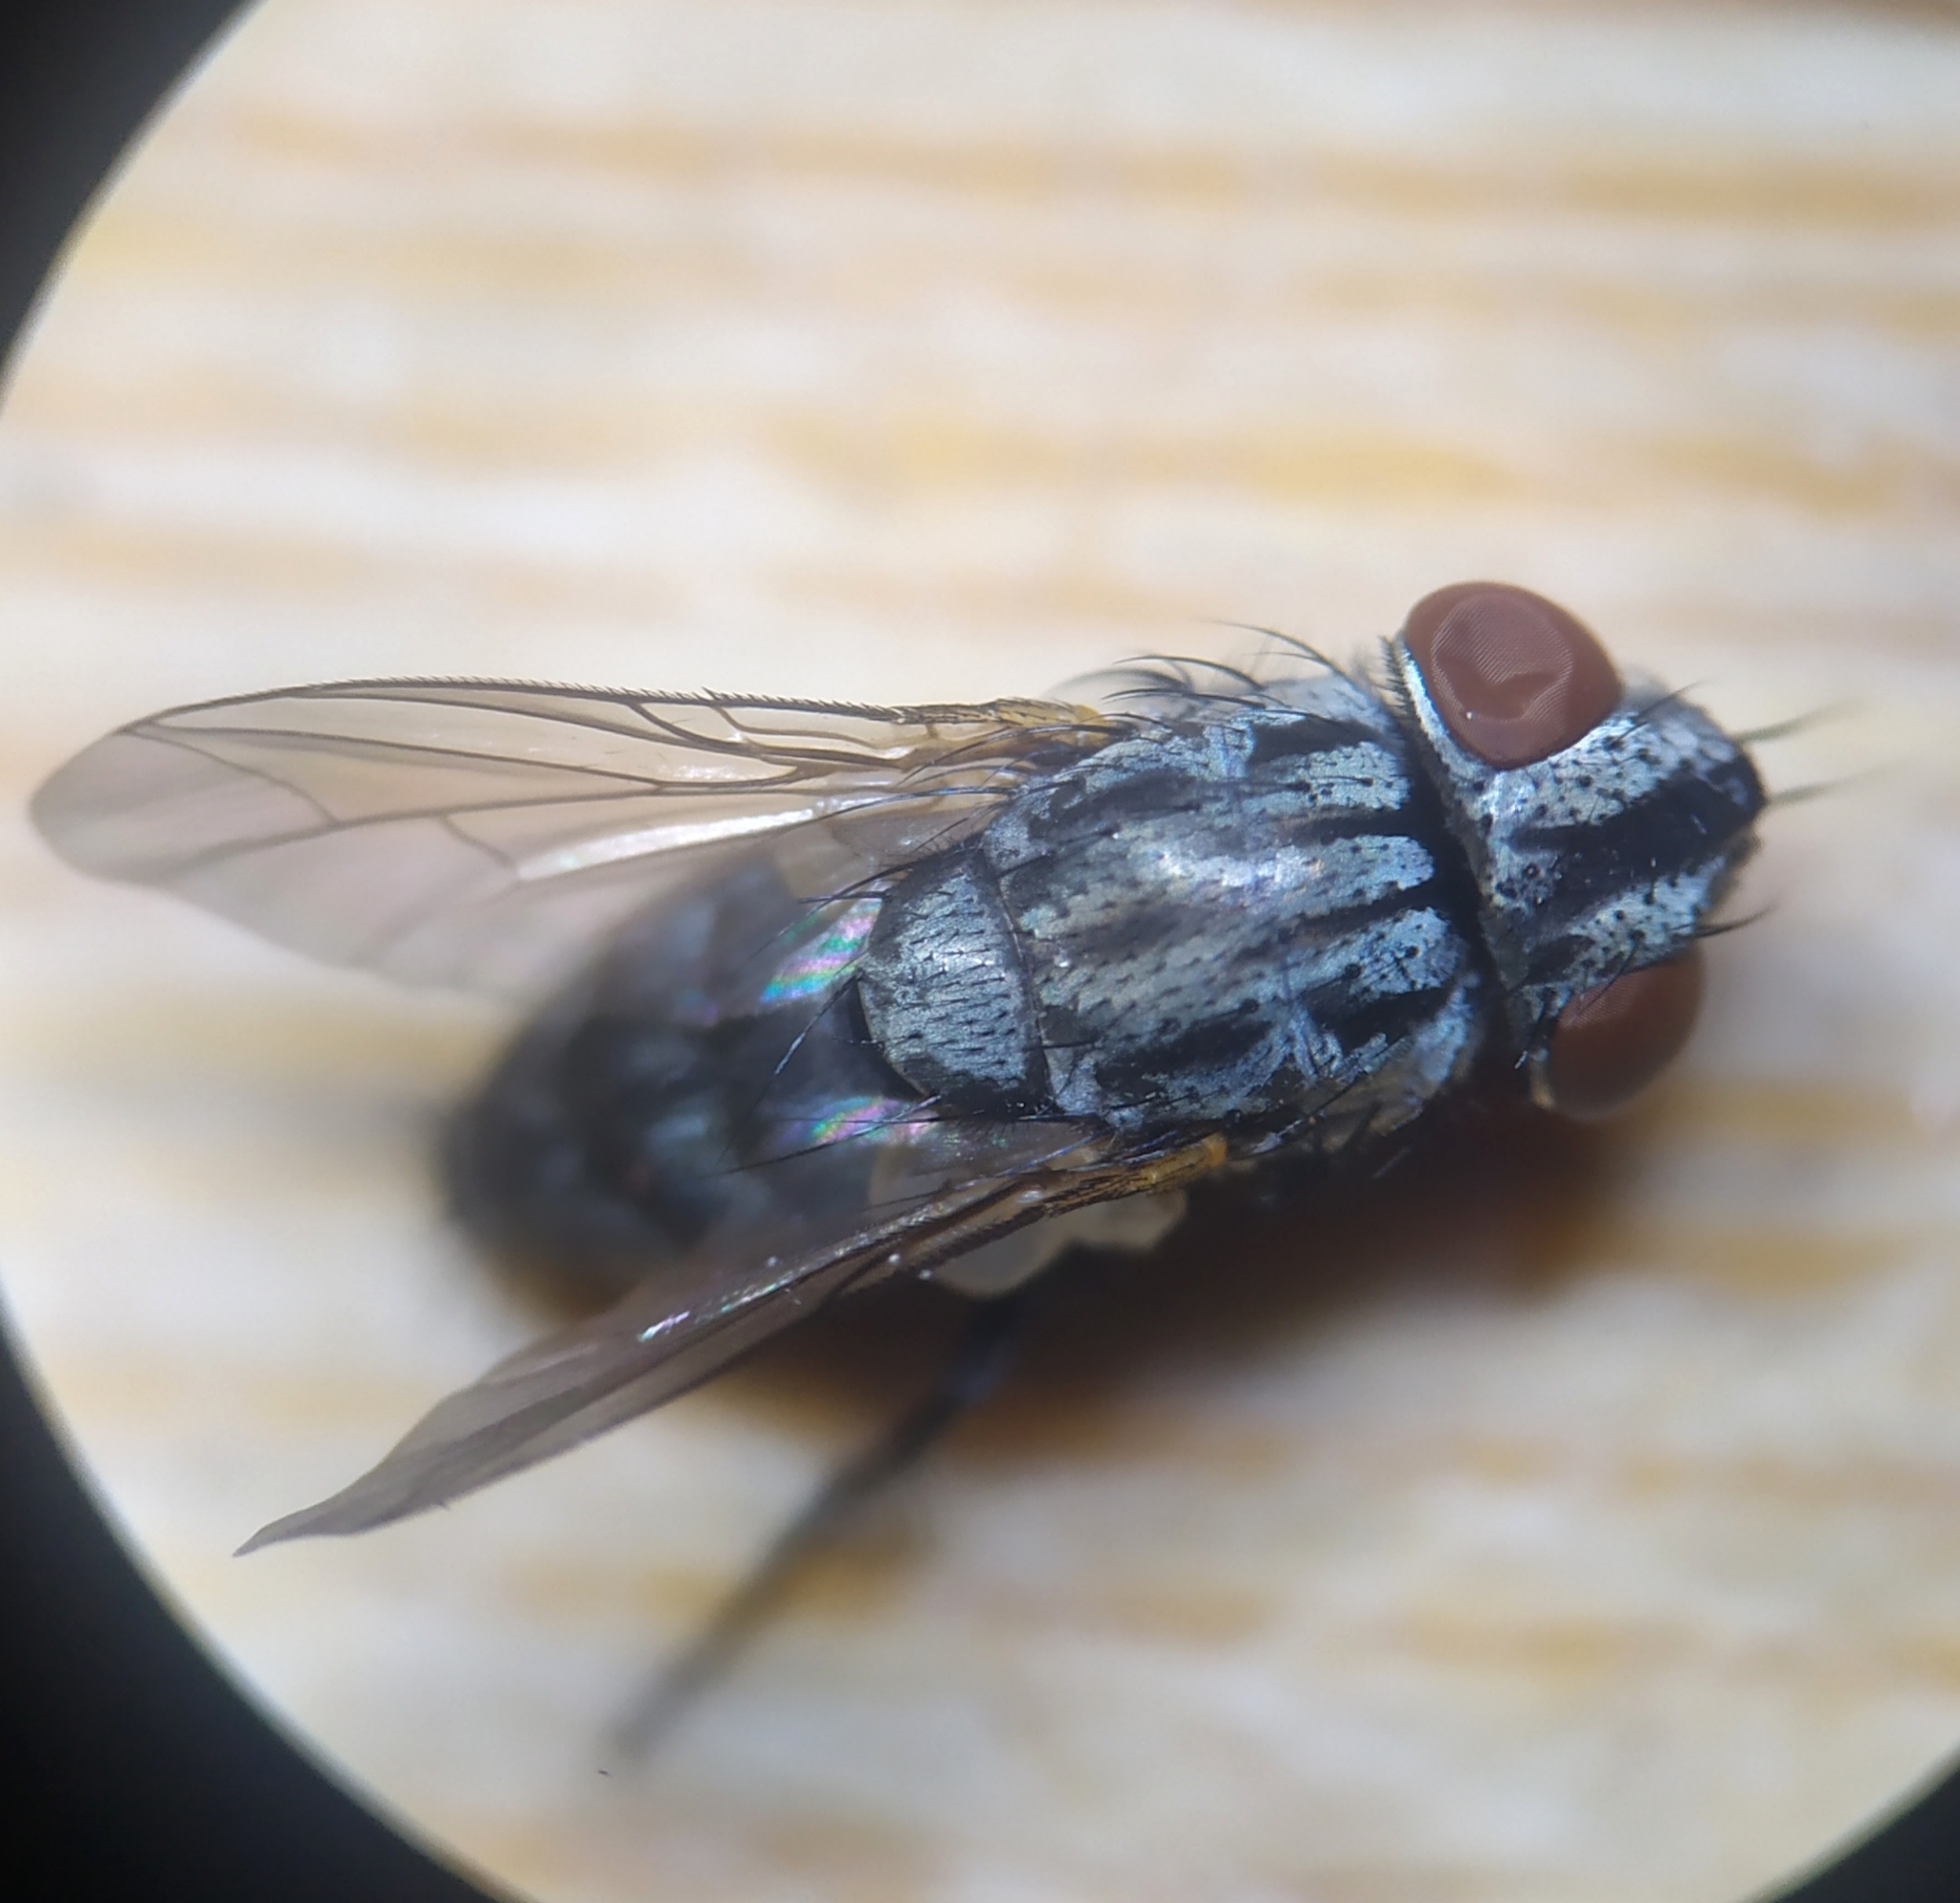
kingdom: Animalia
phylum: Arthropoda
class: Insecta
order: Diptera
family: Sarcophagidae
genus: Metopia
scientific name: Metopia argyrocephala
